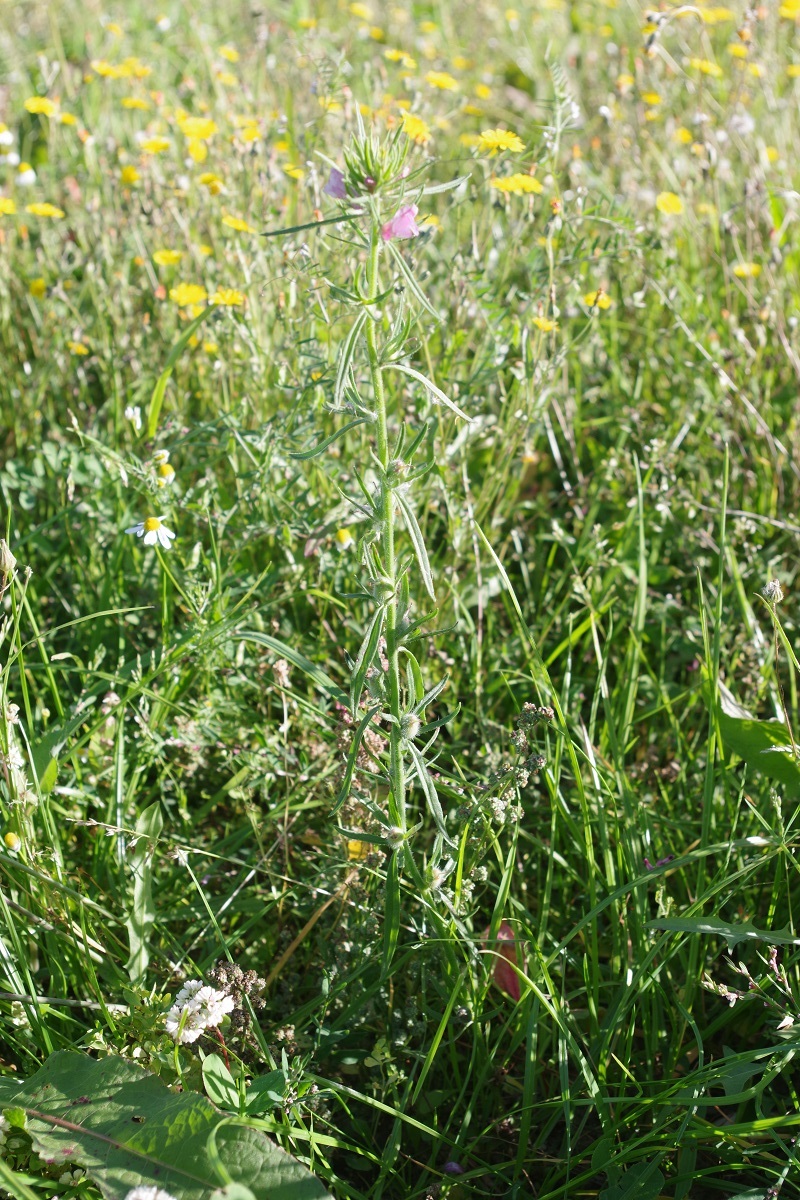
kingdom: Plantae
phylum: Tracheophyta
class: Magnoliopsida
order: Lamiales
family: Plantaginaceae
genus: Misopates
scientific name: Misopates orontium
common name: Weasel's-snout
